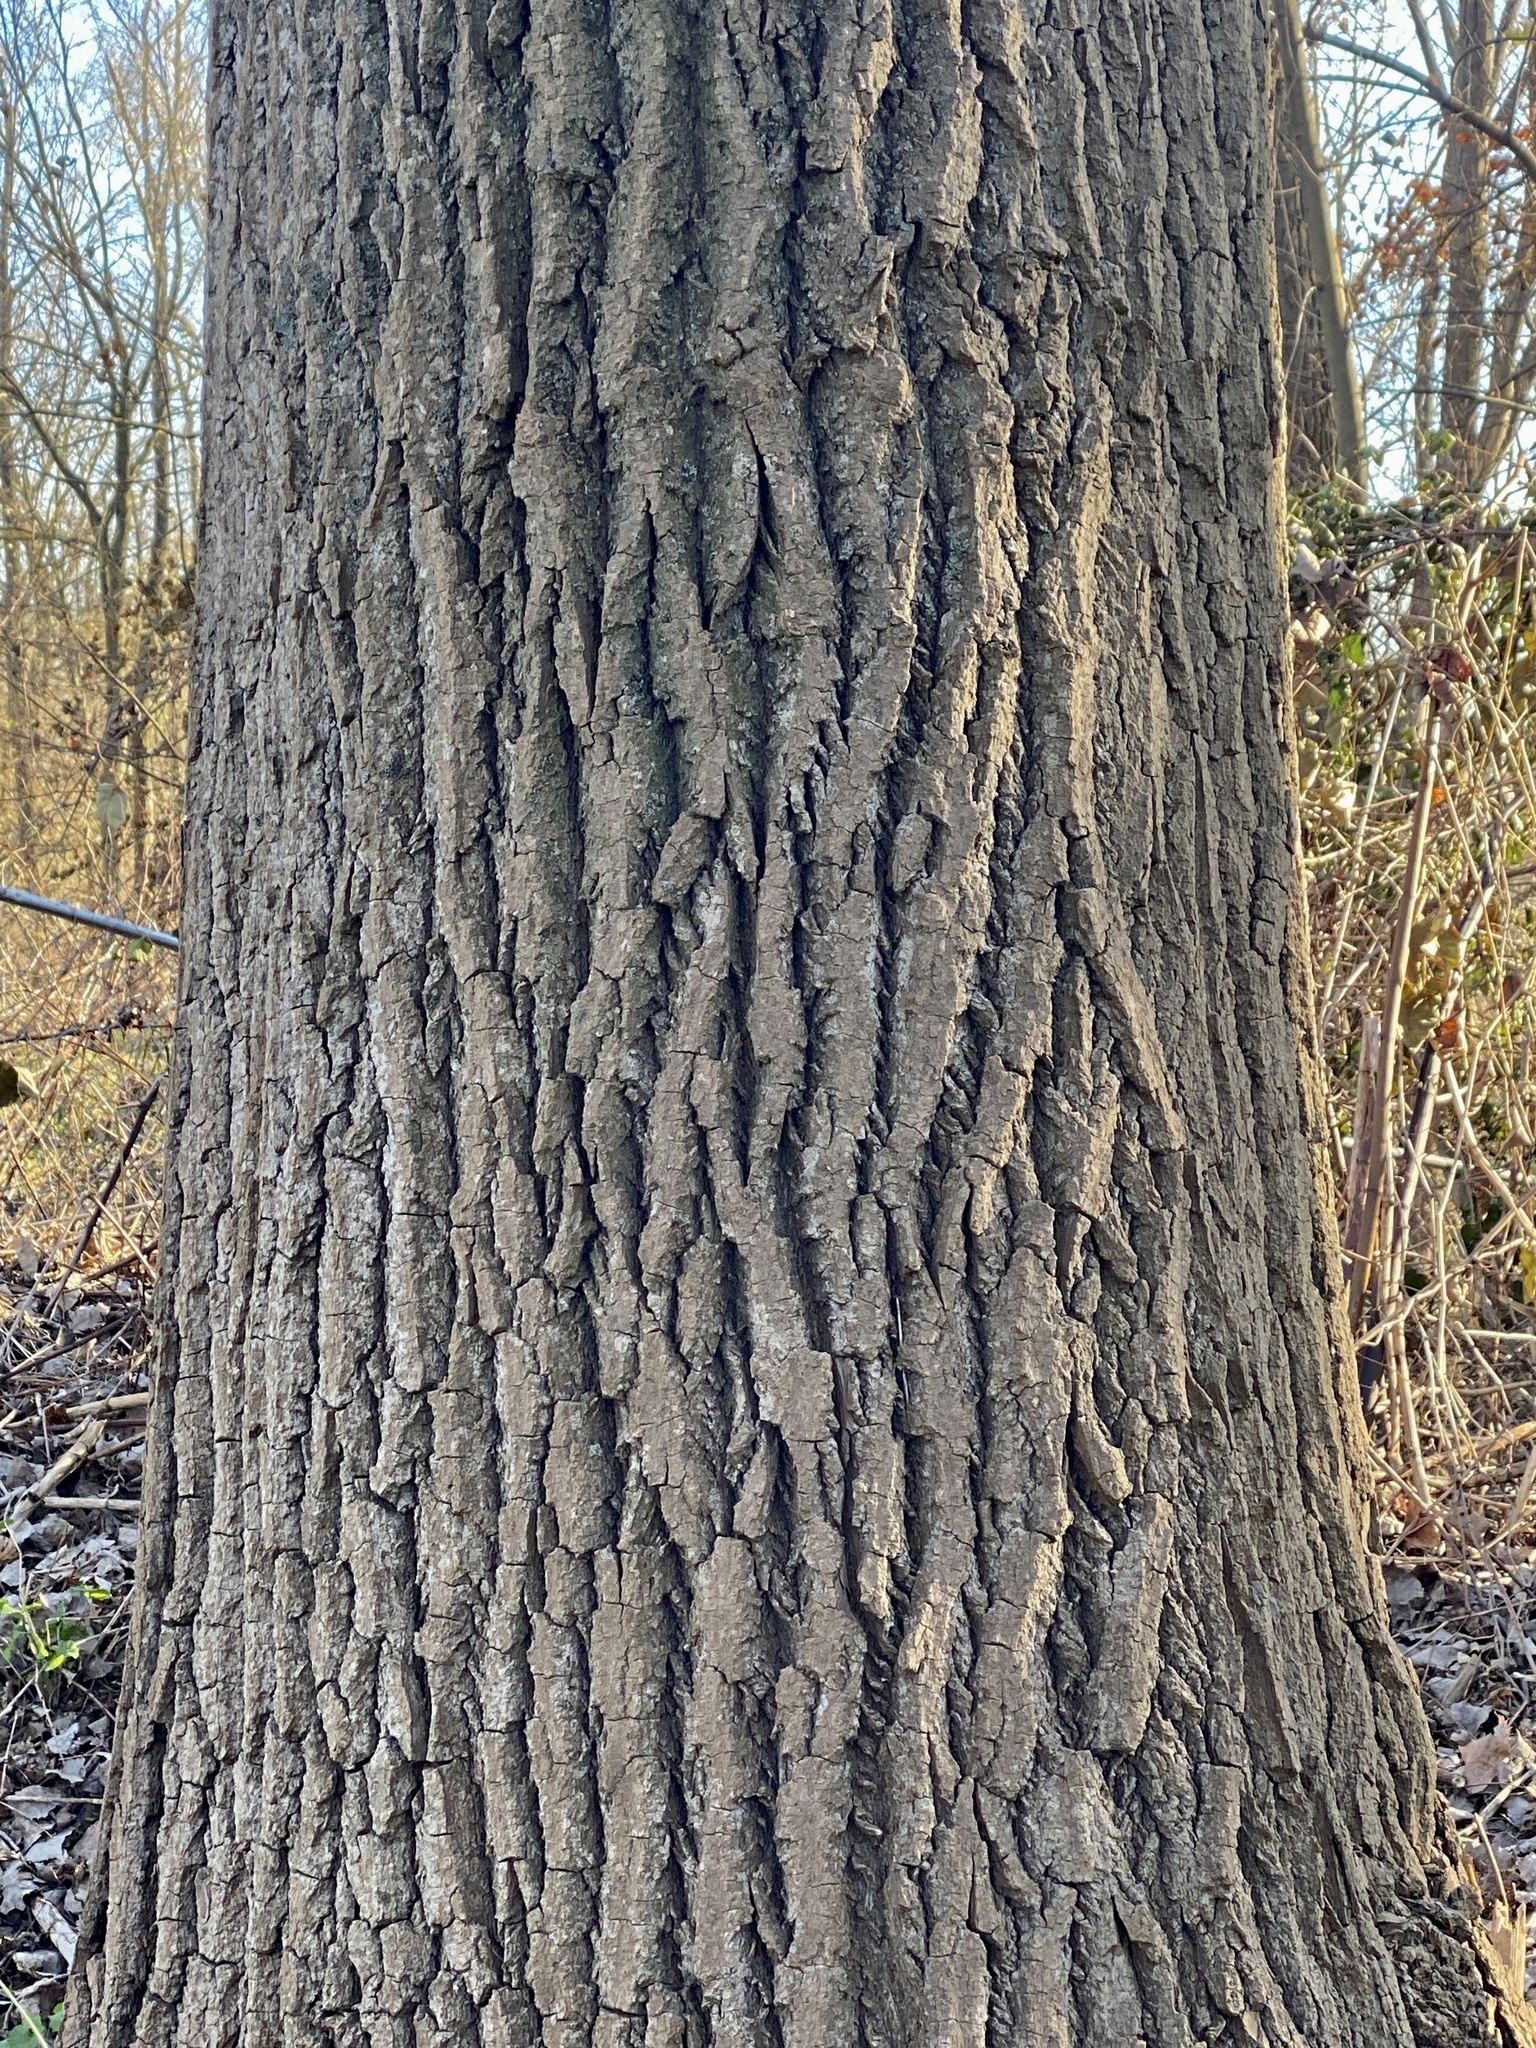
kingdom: Plantae
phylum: Tracheophyta
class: Magnoliopsida
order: Malpighiales
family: Salicaceae
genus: Populus
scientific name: Populus deltoides
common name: Eastern cottonwood
